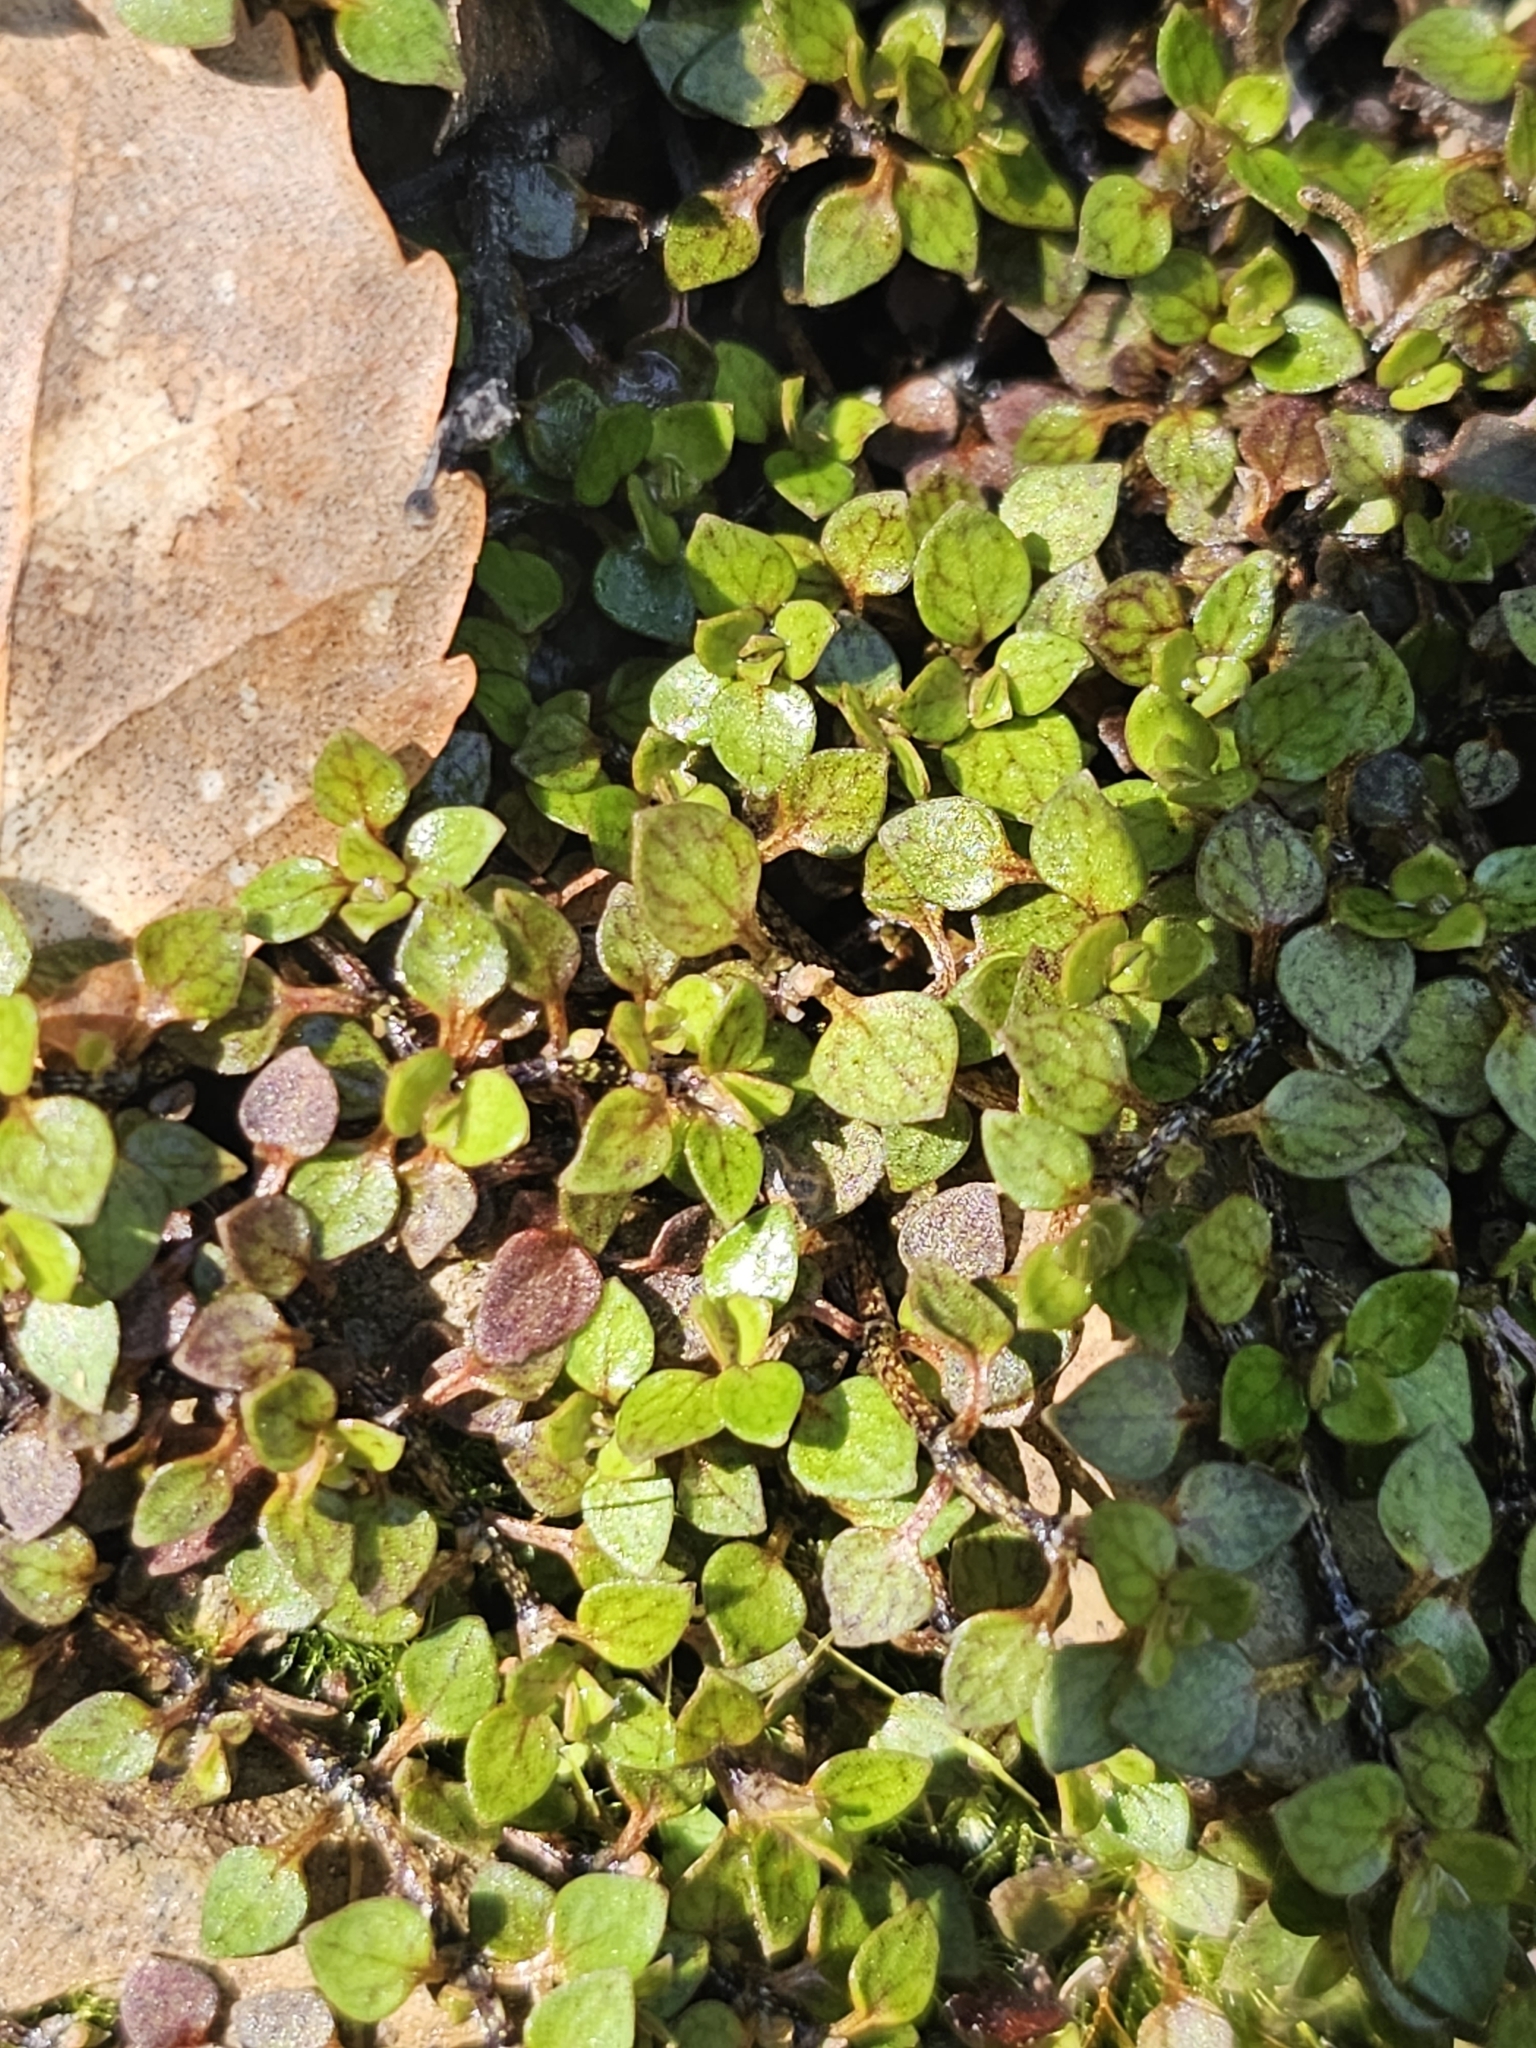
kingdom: Plantae
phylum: Tracheophyta
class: Magnoliopsida
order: Gentianales
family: Rubiaceae
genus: Nertera
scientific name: Nertera granadensis
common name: Beadplant
